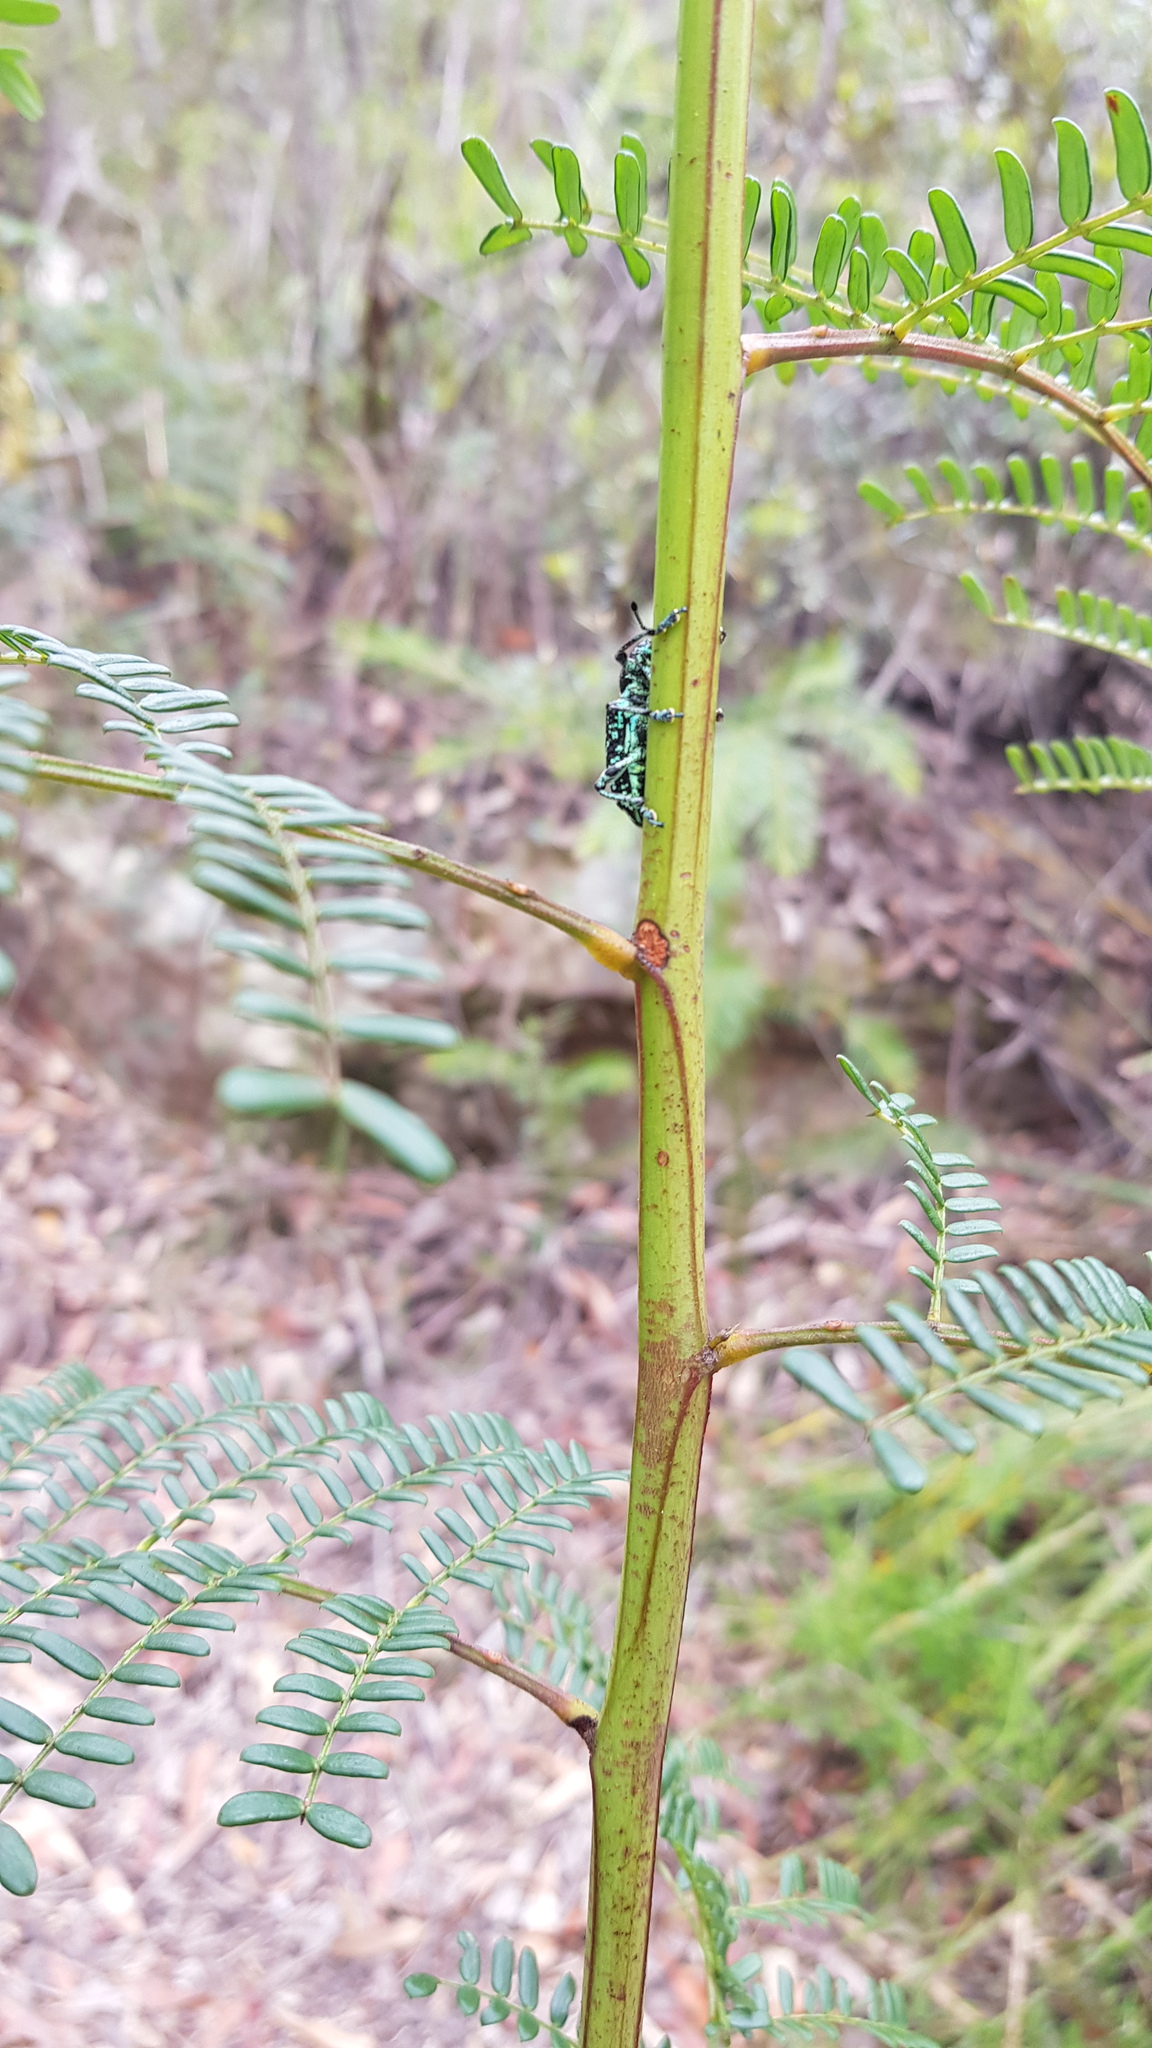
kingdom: Animalia
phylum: Arthropoda
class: Insecta
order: Coleoptera
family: Curculionidae
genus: Chrysolopus
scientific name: Chrysolopus spectabilis
